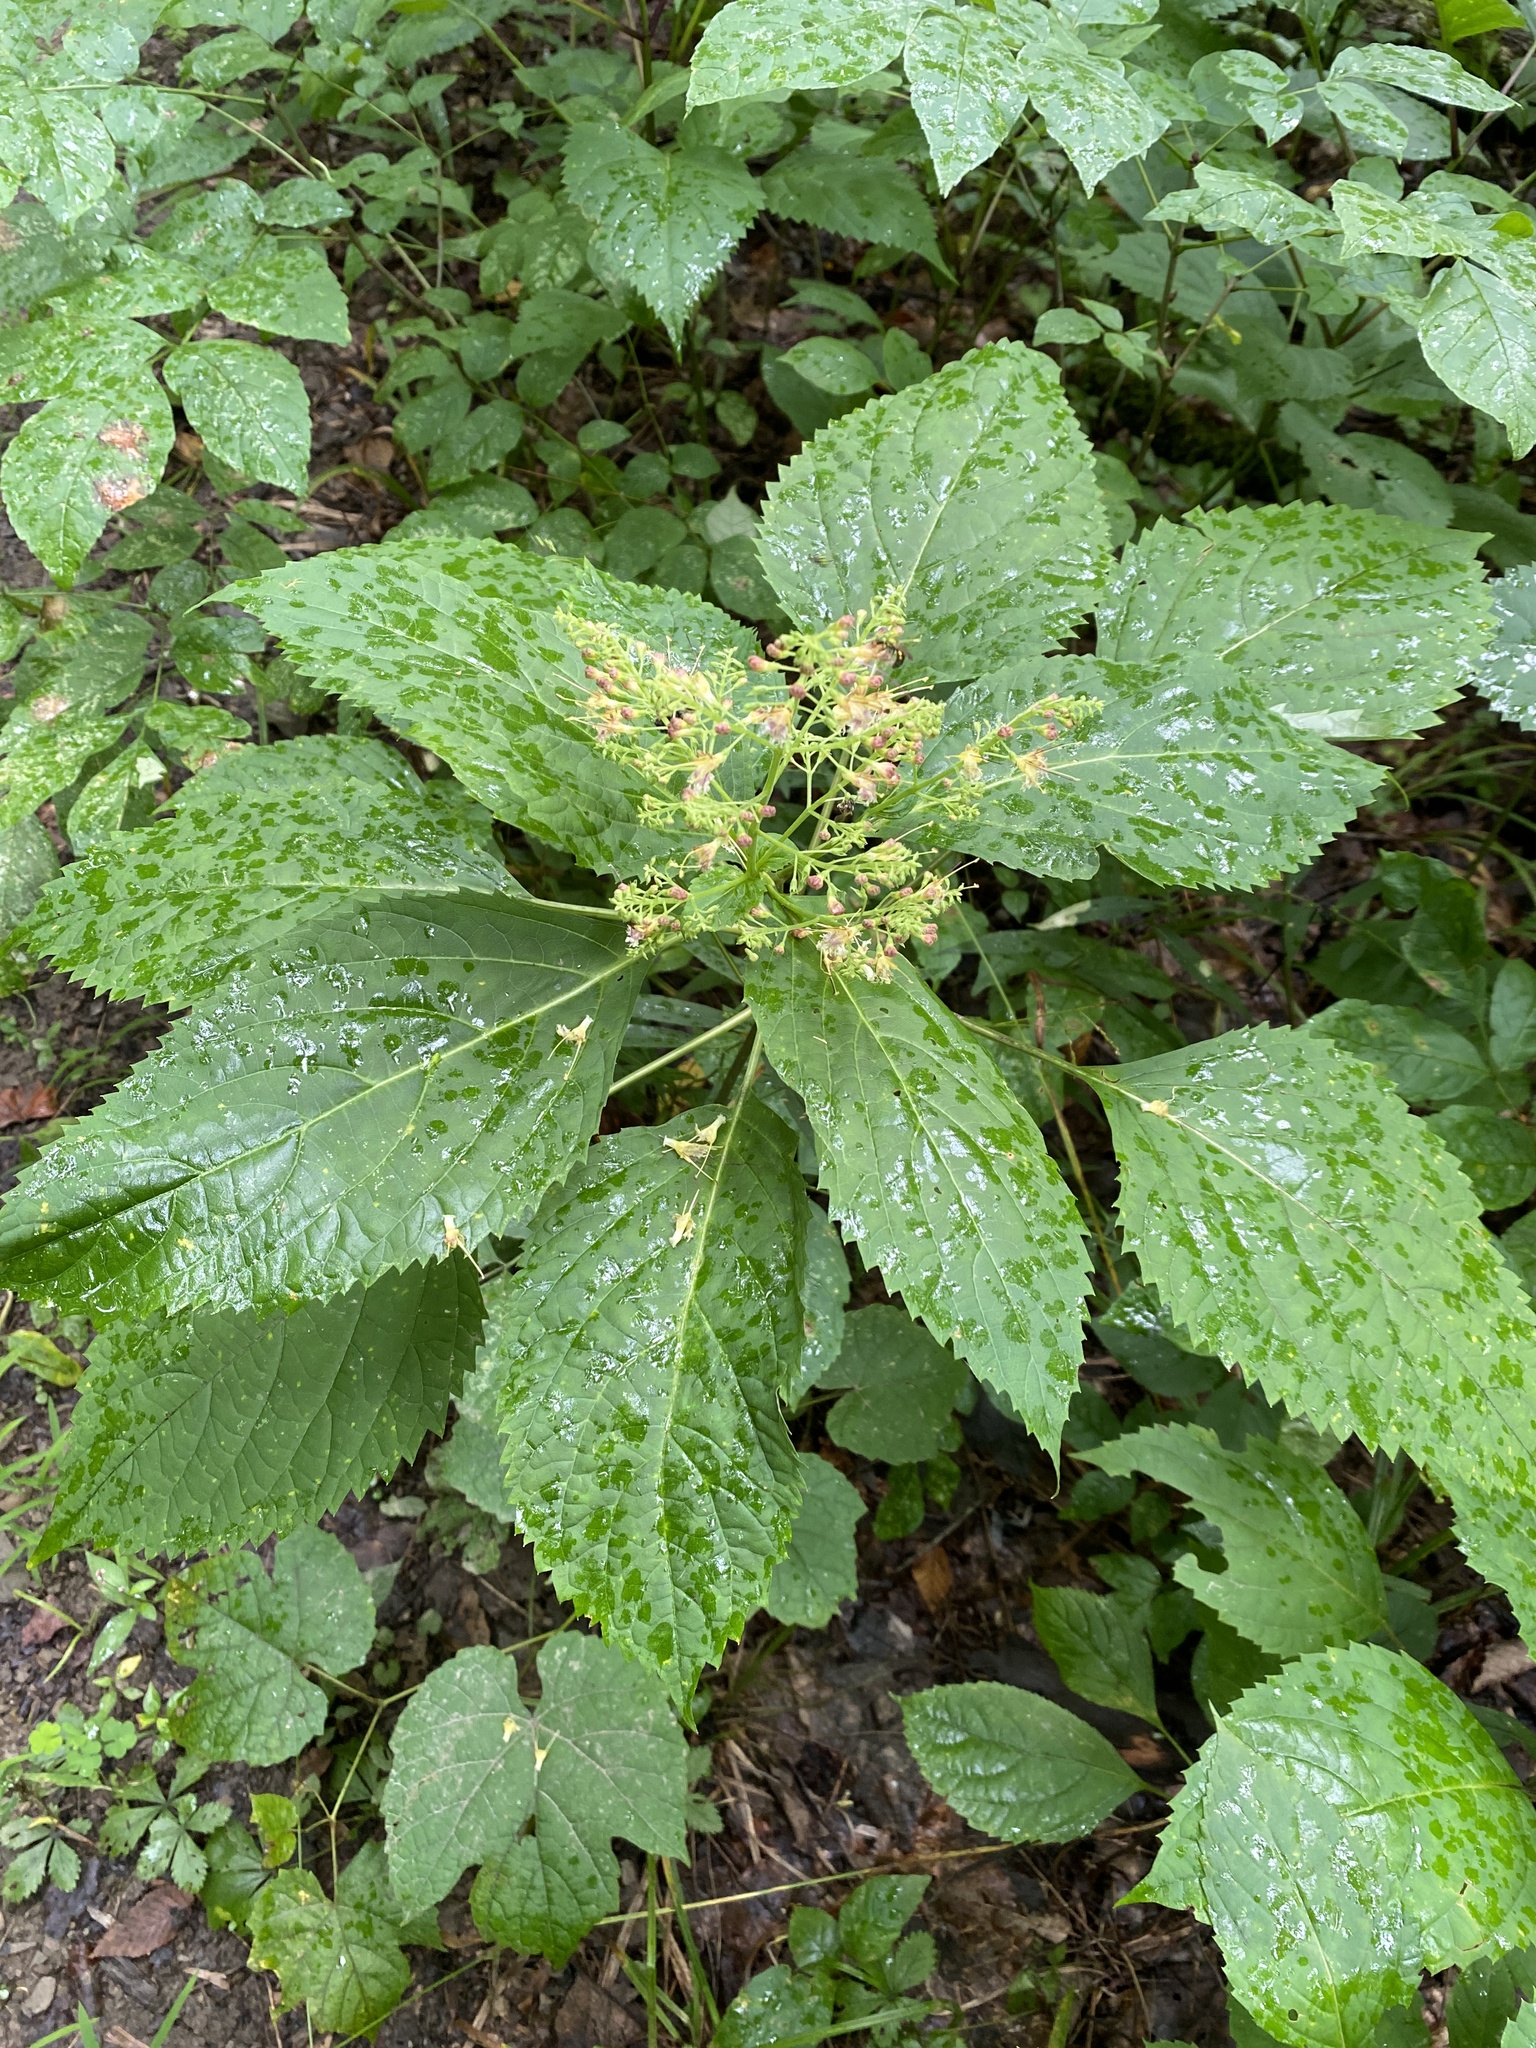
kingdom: Plantae
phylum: Tracheophyta
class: Magnoliopsida
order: Lamiales
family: Lamiaceae
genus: Collinsonia
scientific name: Collinsonia canadensis
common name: Northern horsebalm
